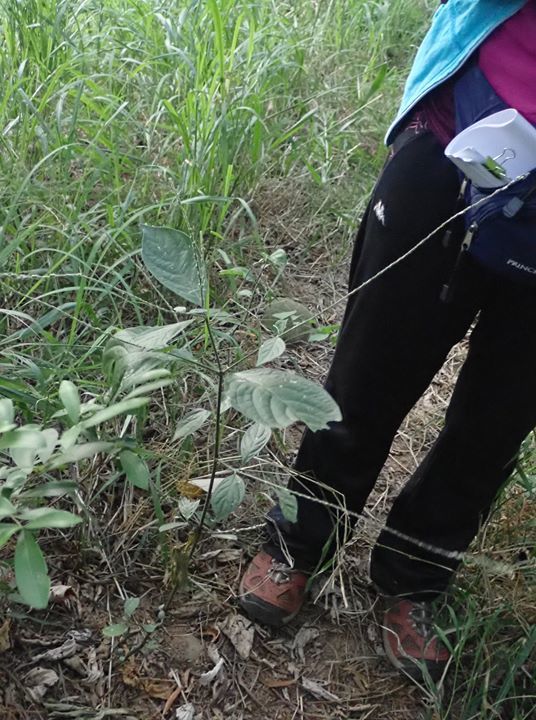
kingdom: Plantae
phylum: Tracheophyta
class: Magnoliopsida
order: Caryophyllales
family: Amaranthaceae
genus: Achyranthes
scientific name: Achyranthes aspera
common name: Devil's horsewhip
